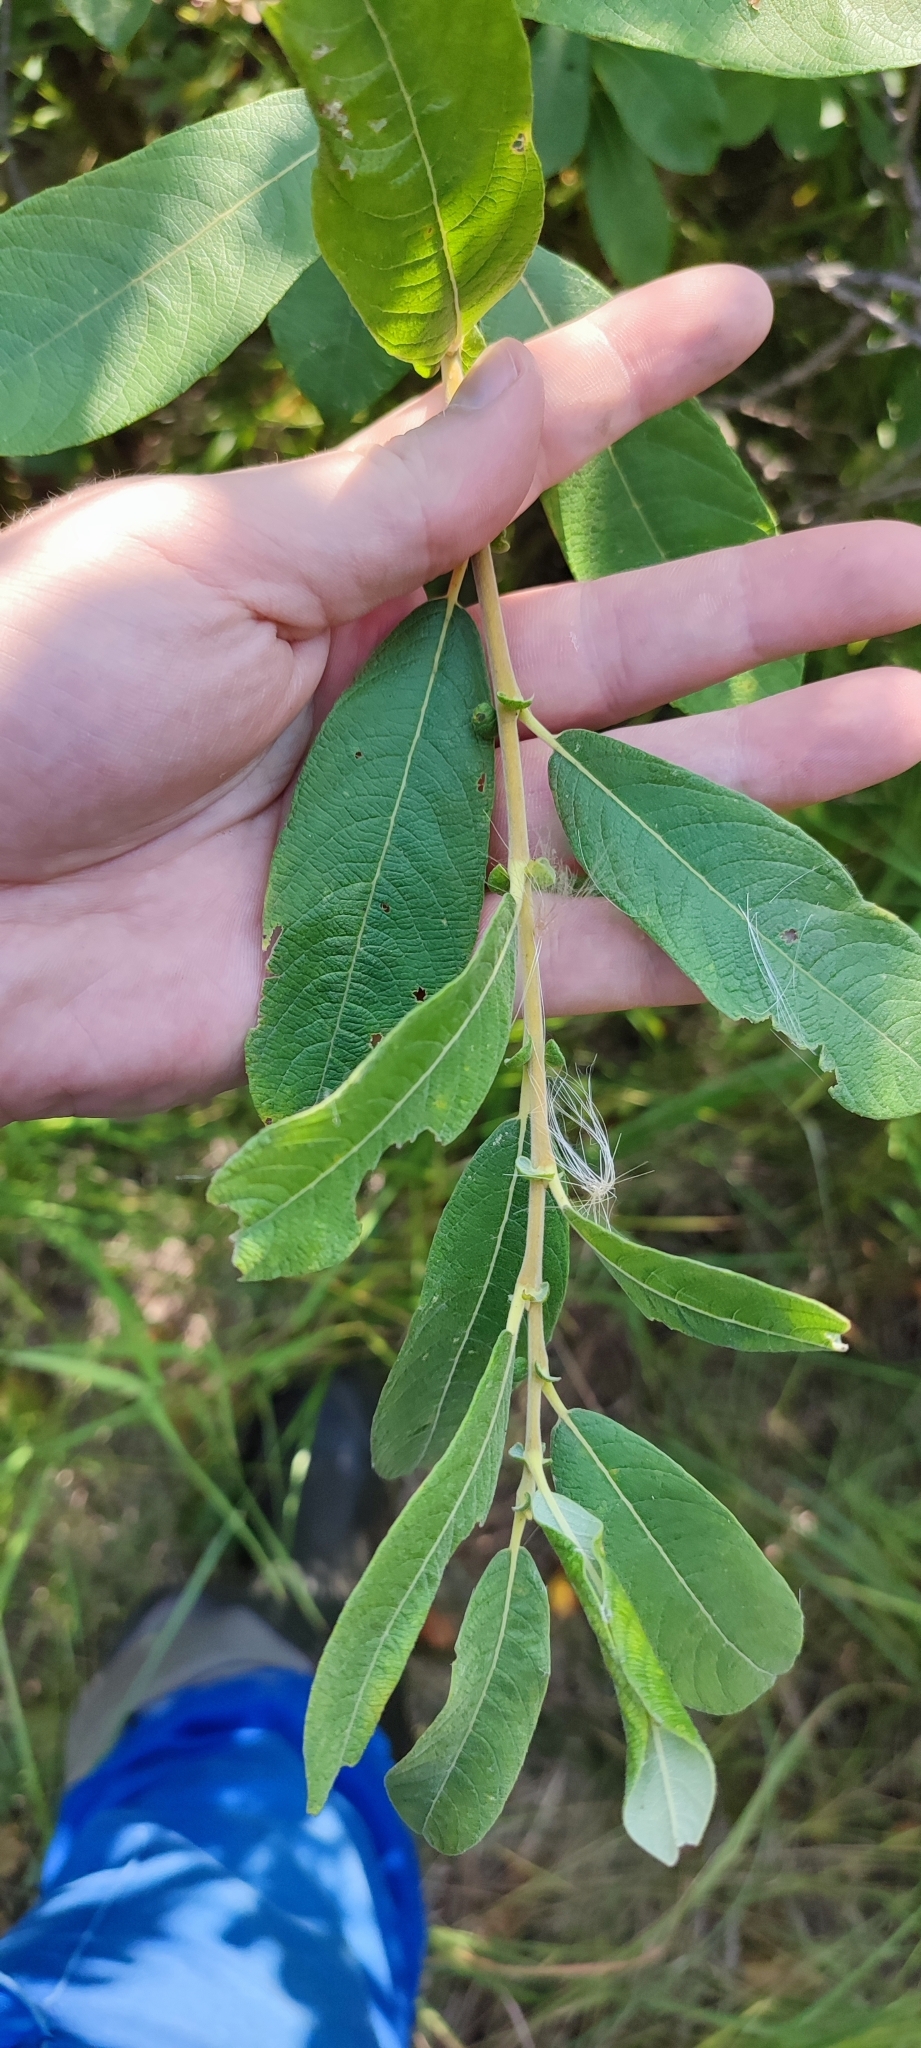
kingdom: Plantae
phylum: Tracheophyta
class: Magnoliopsida
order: Malpighiales
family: Salicaceae
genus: Salix
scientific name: Salix cinerea
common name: Common sallow
